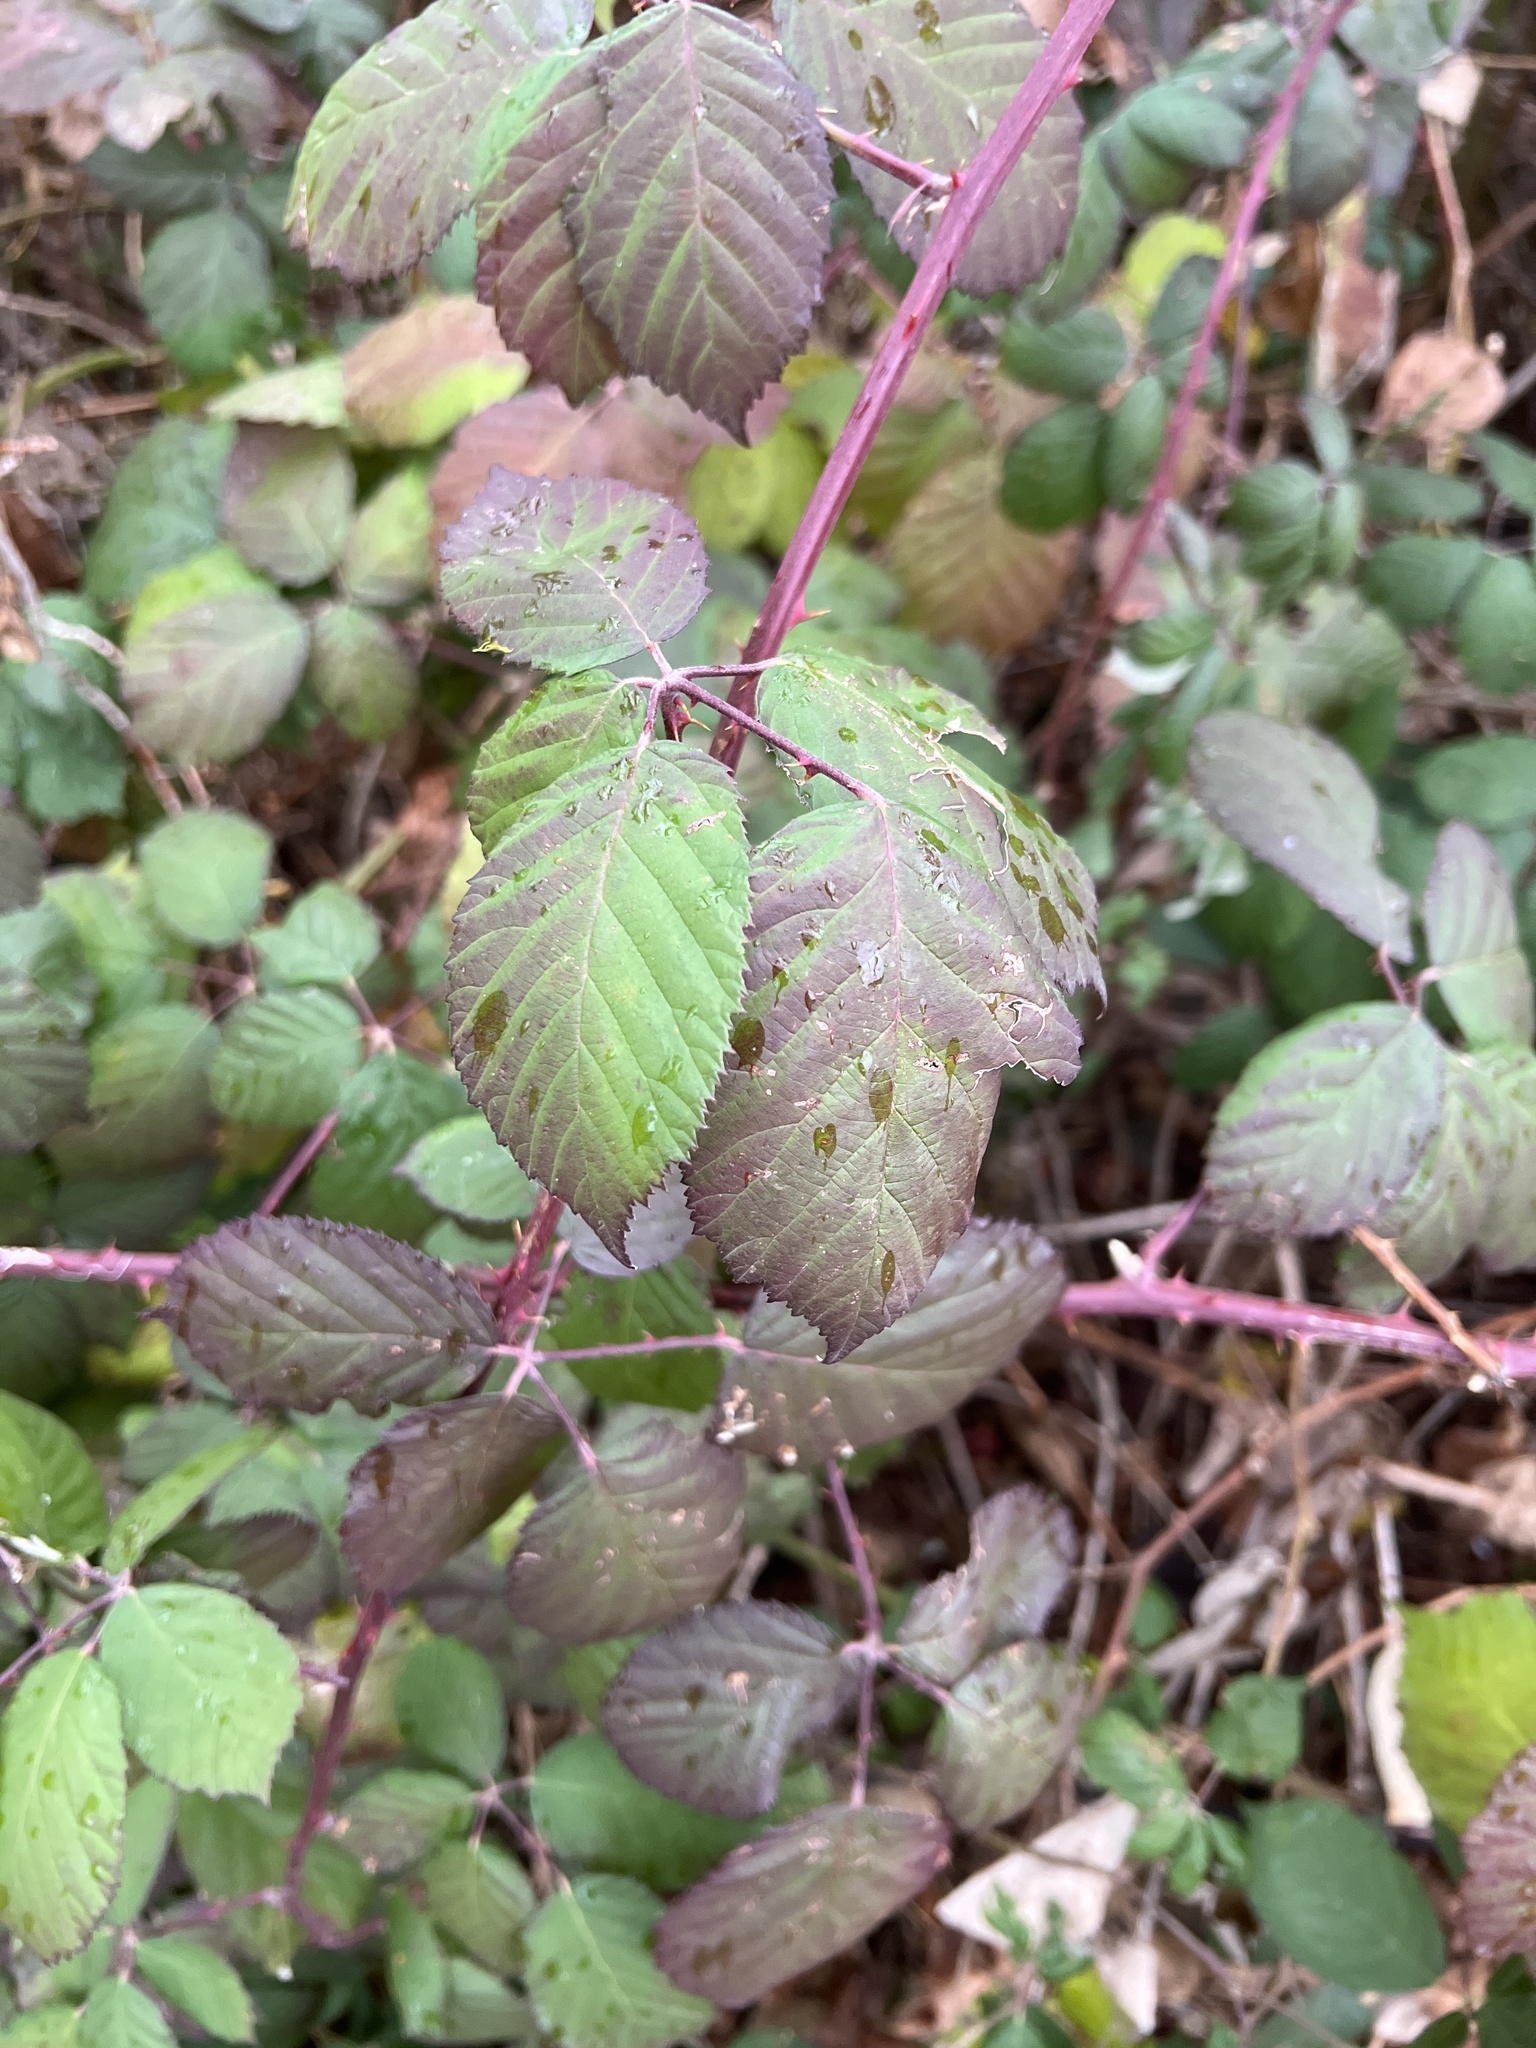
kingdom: Plantae
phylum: Tracheophyta
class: Magnoliopsida
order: Rosales
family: Rosaceae
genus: Rubus
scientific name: Rubus bifrons
